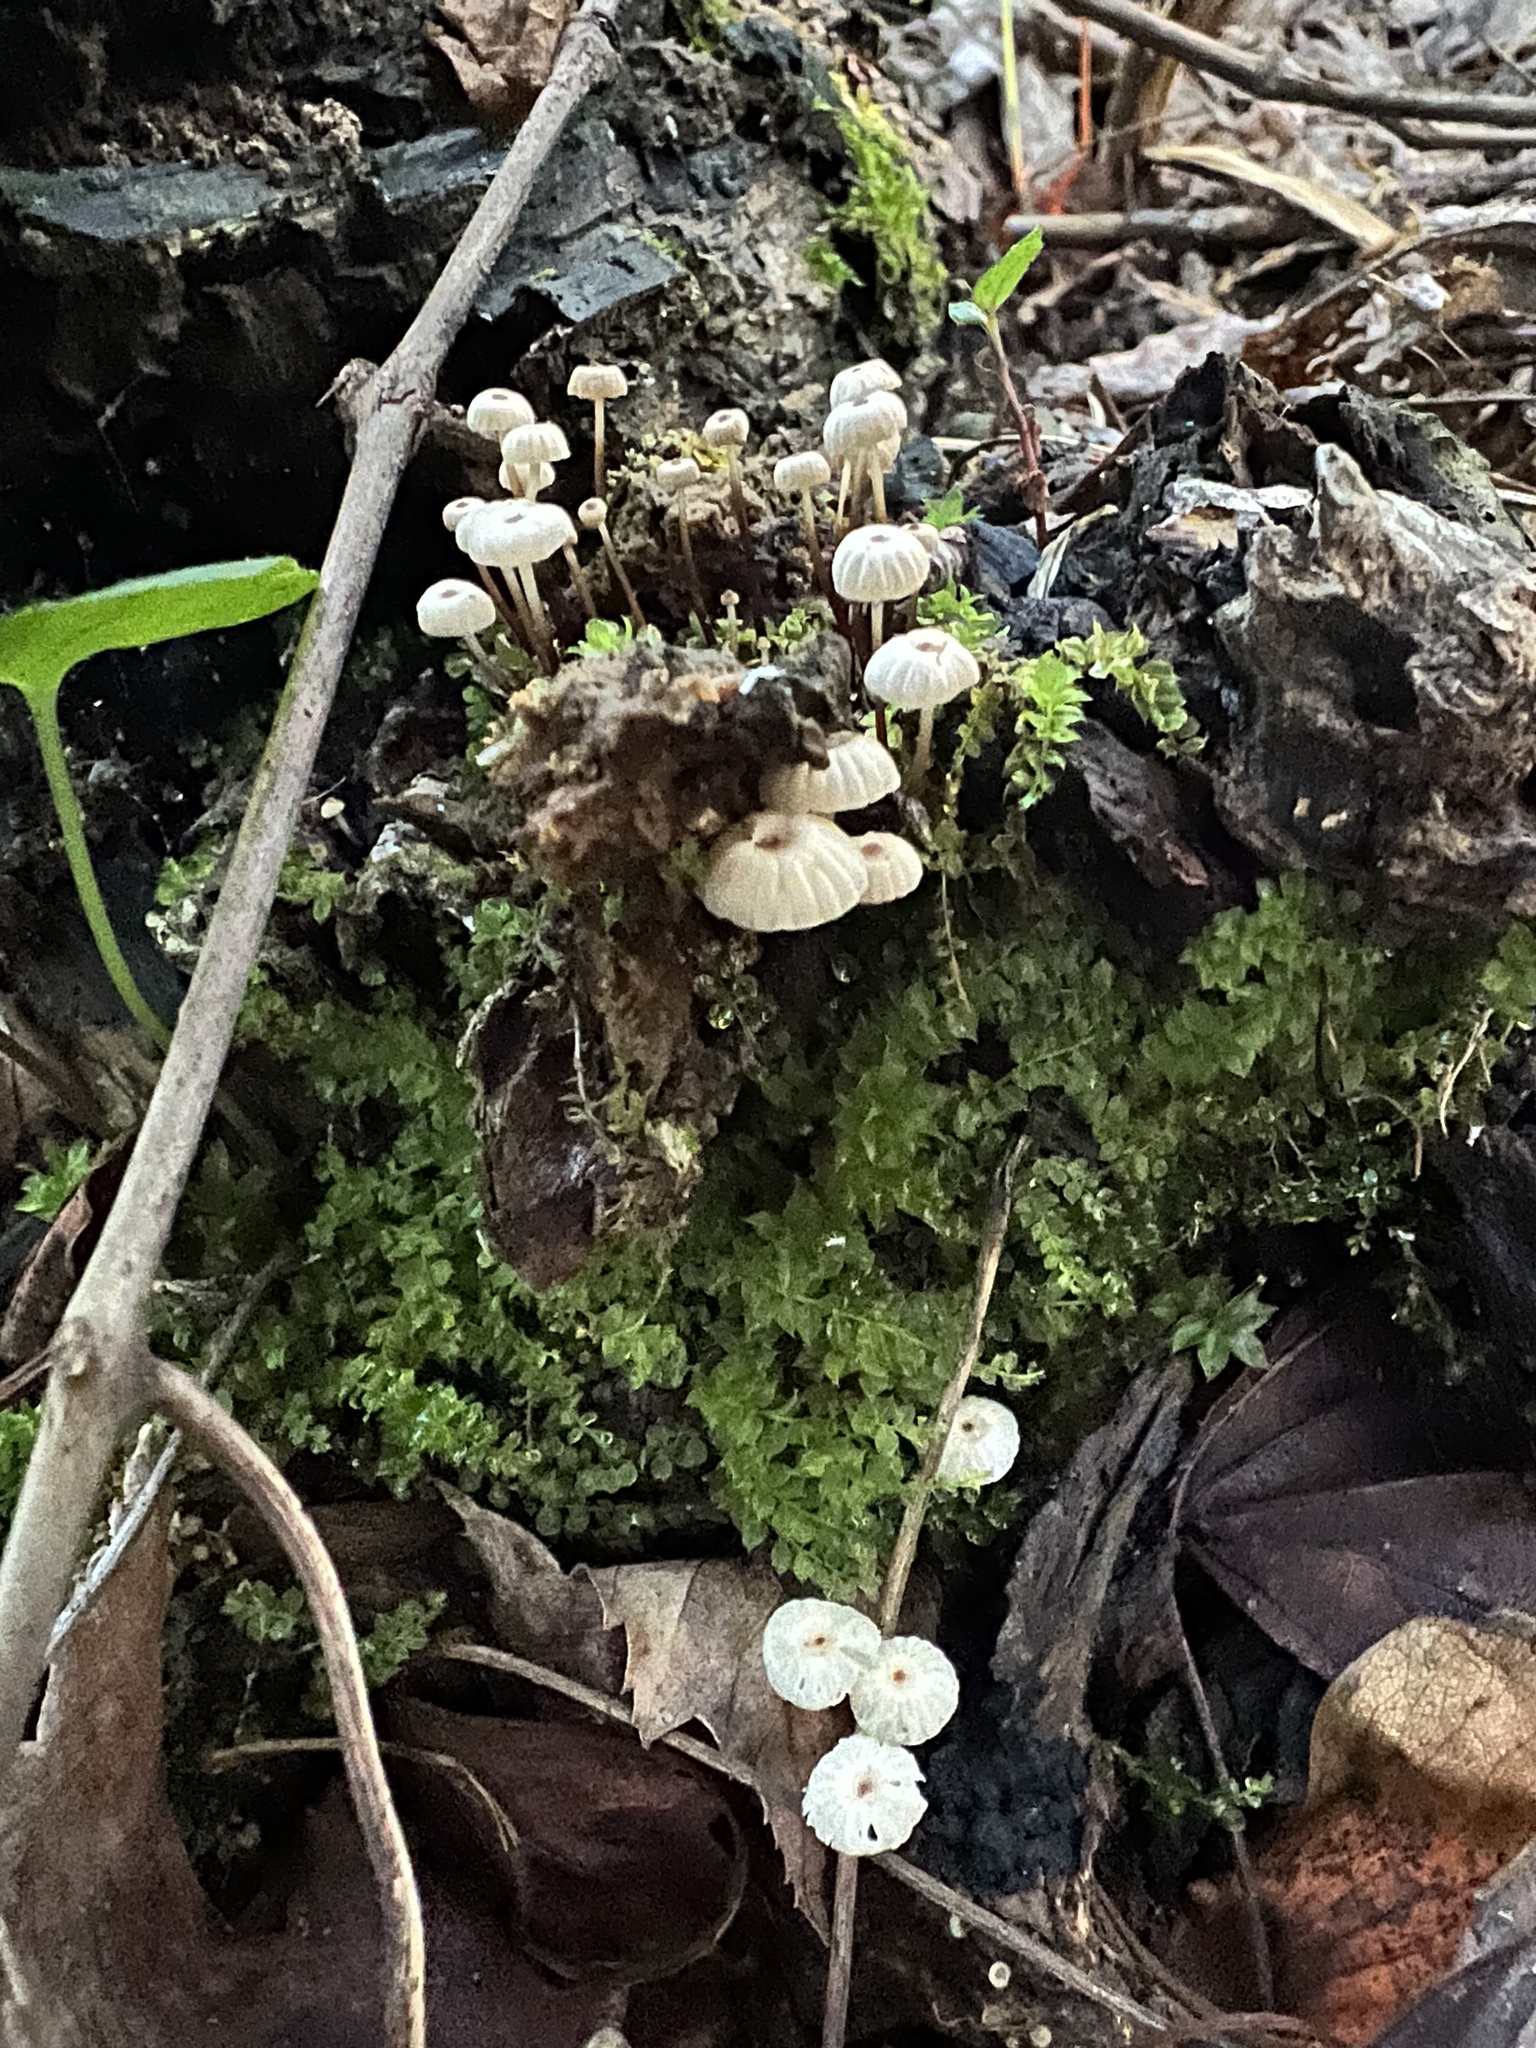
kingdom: Fungi
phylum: Basidiomycota
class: Agaricomycetes
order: Agaricales
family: Marasmiaceae
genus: Marasmius
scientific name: Marasmius rotula
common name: Collared parachute
